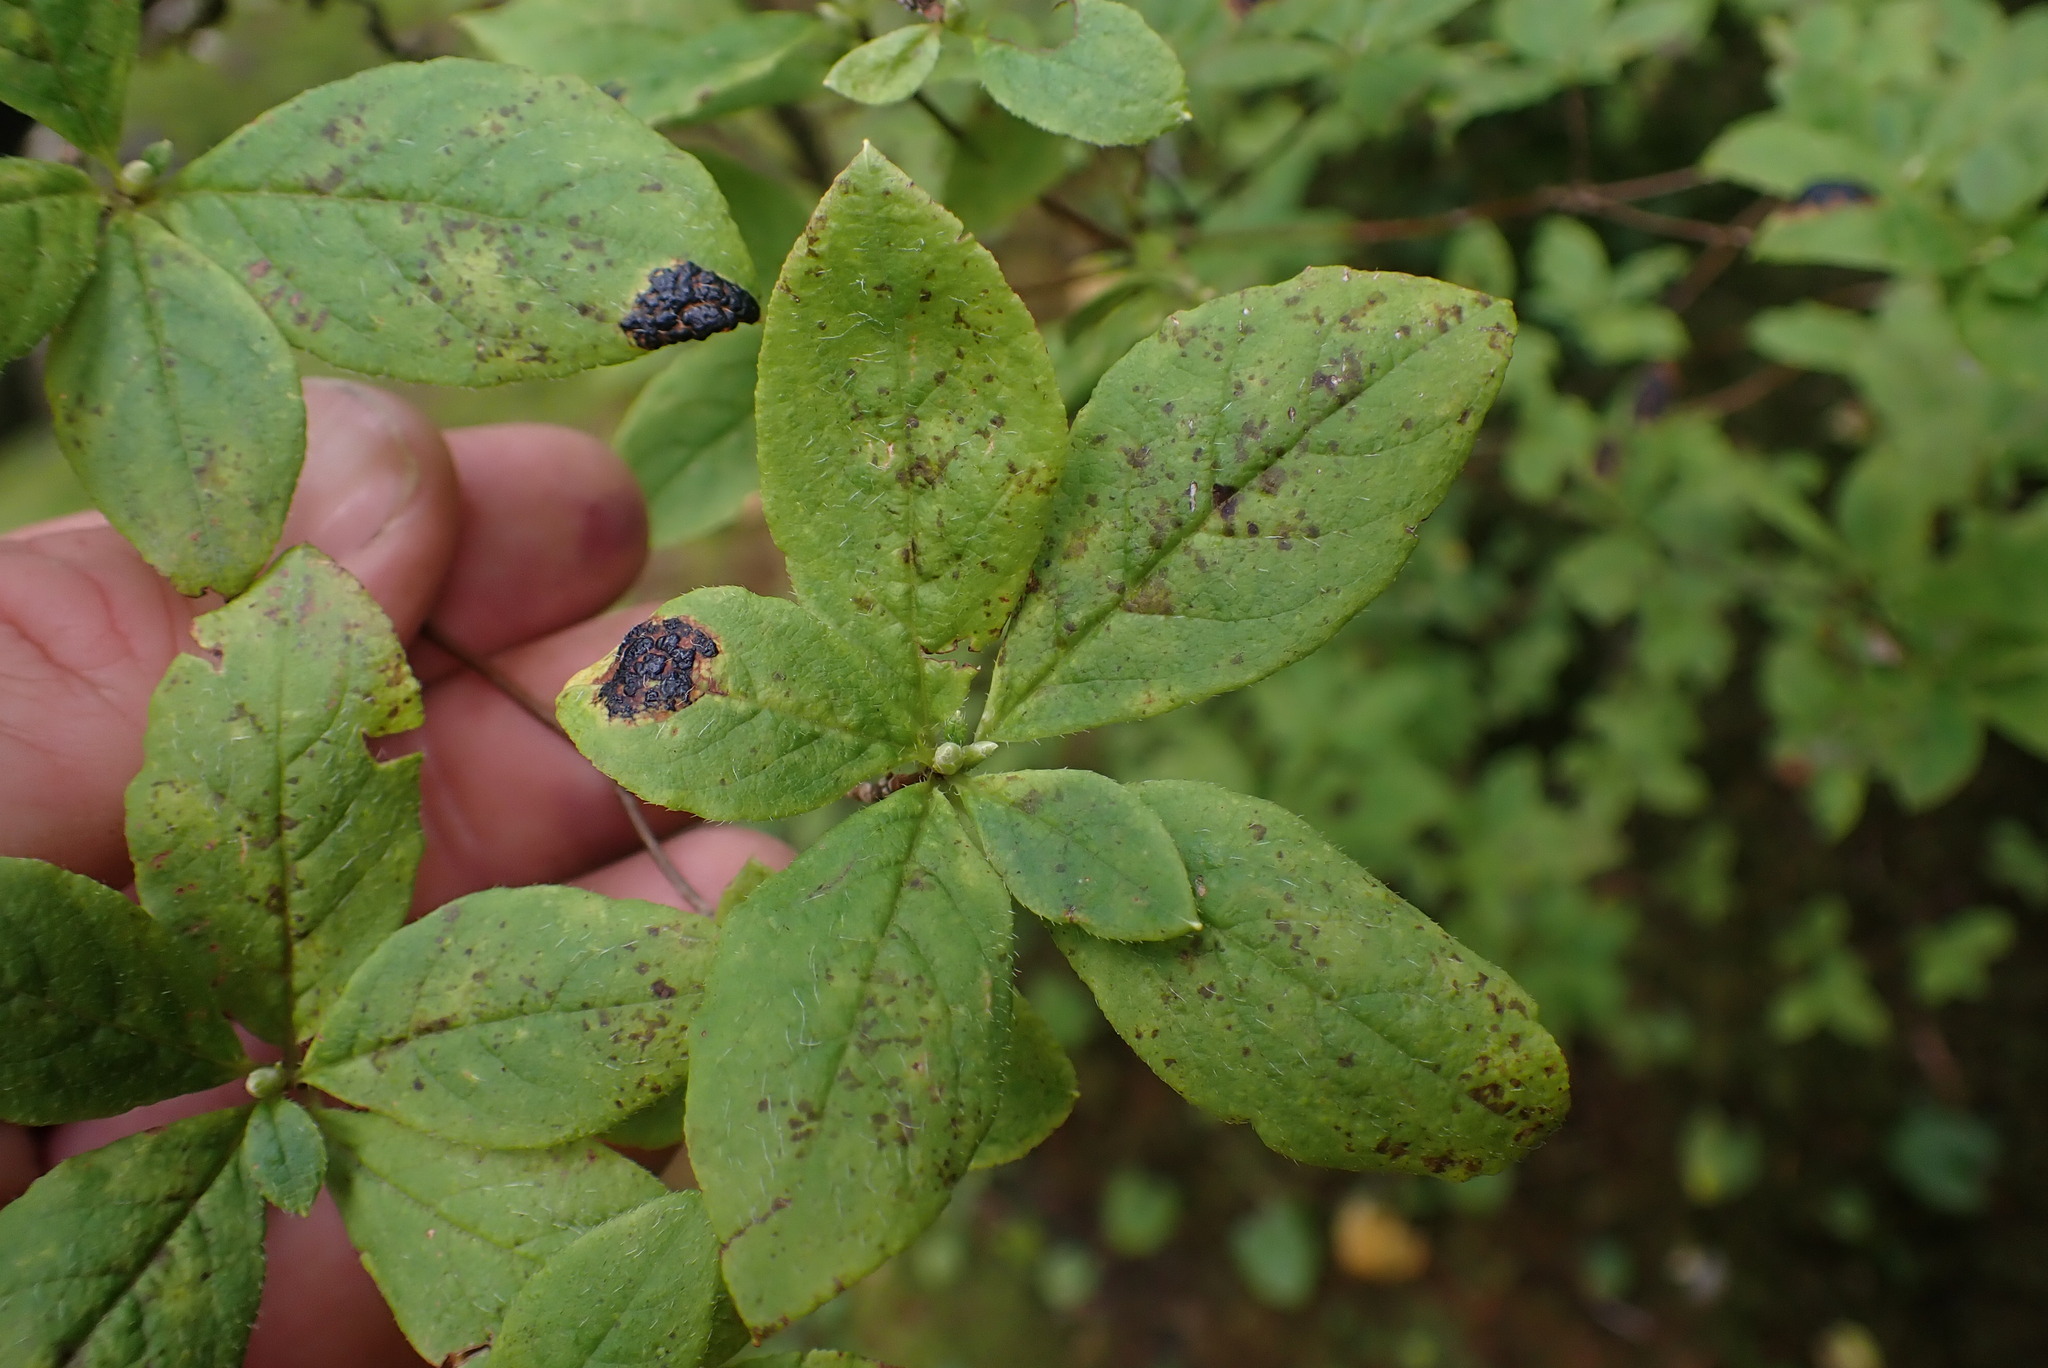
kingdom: Plantae
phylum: Tracheophyta
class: Magnoliopsida
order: Ericales
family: Ericaceae
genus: Rhododendron
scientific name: Rhododendron menziesii
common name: Pacific menziesia
